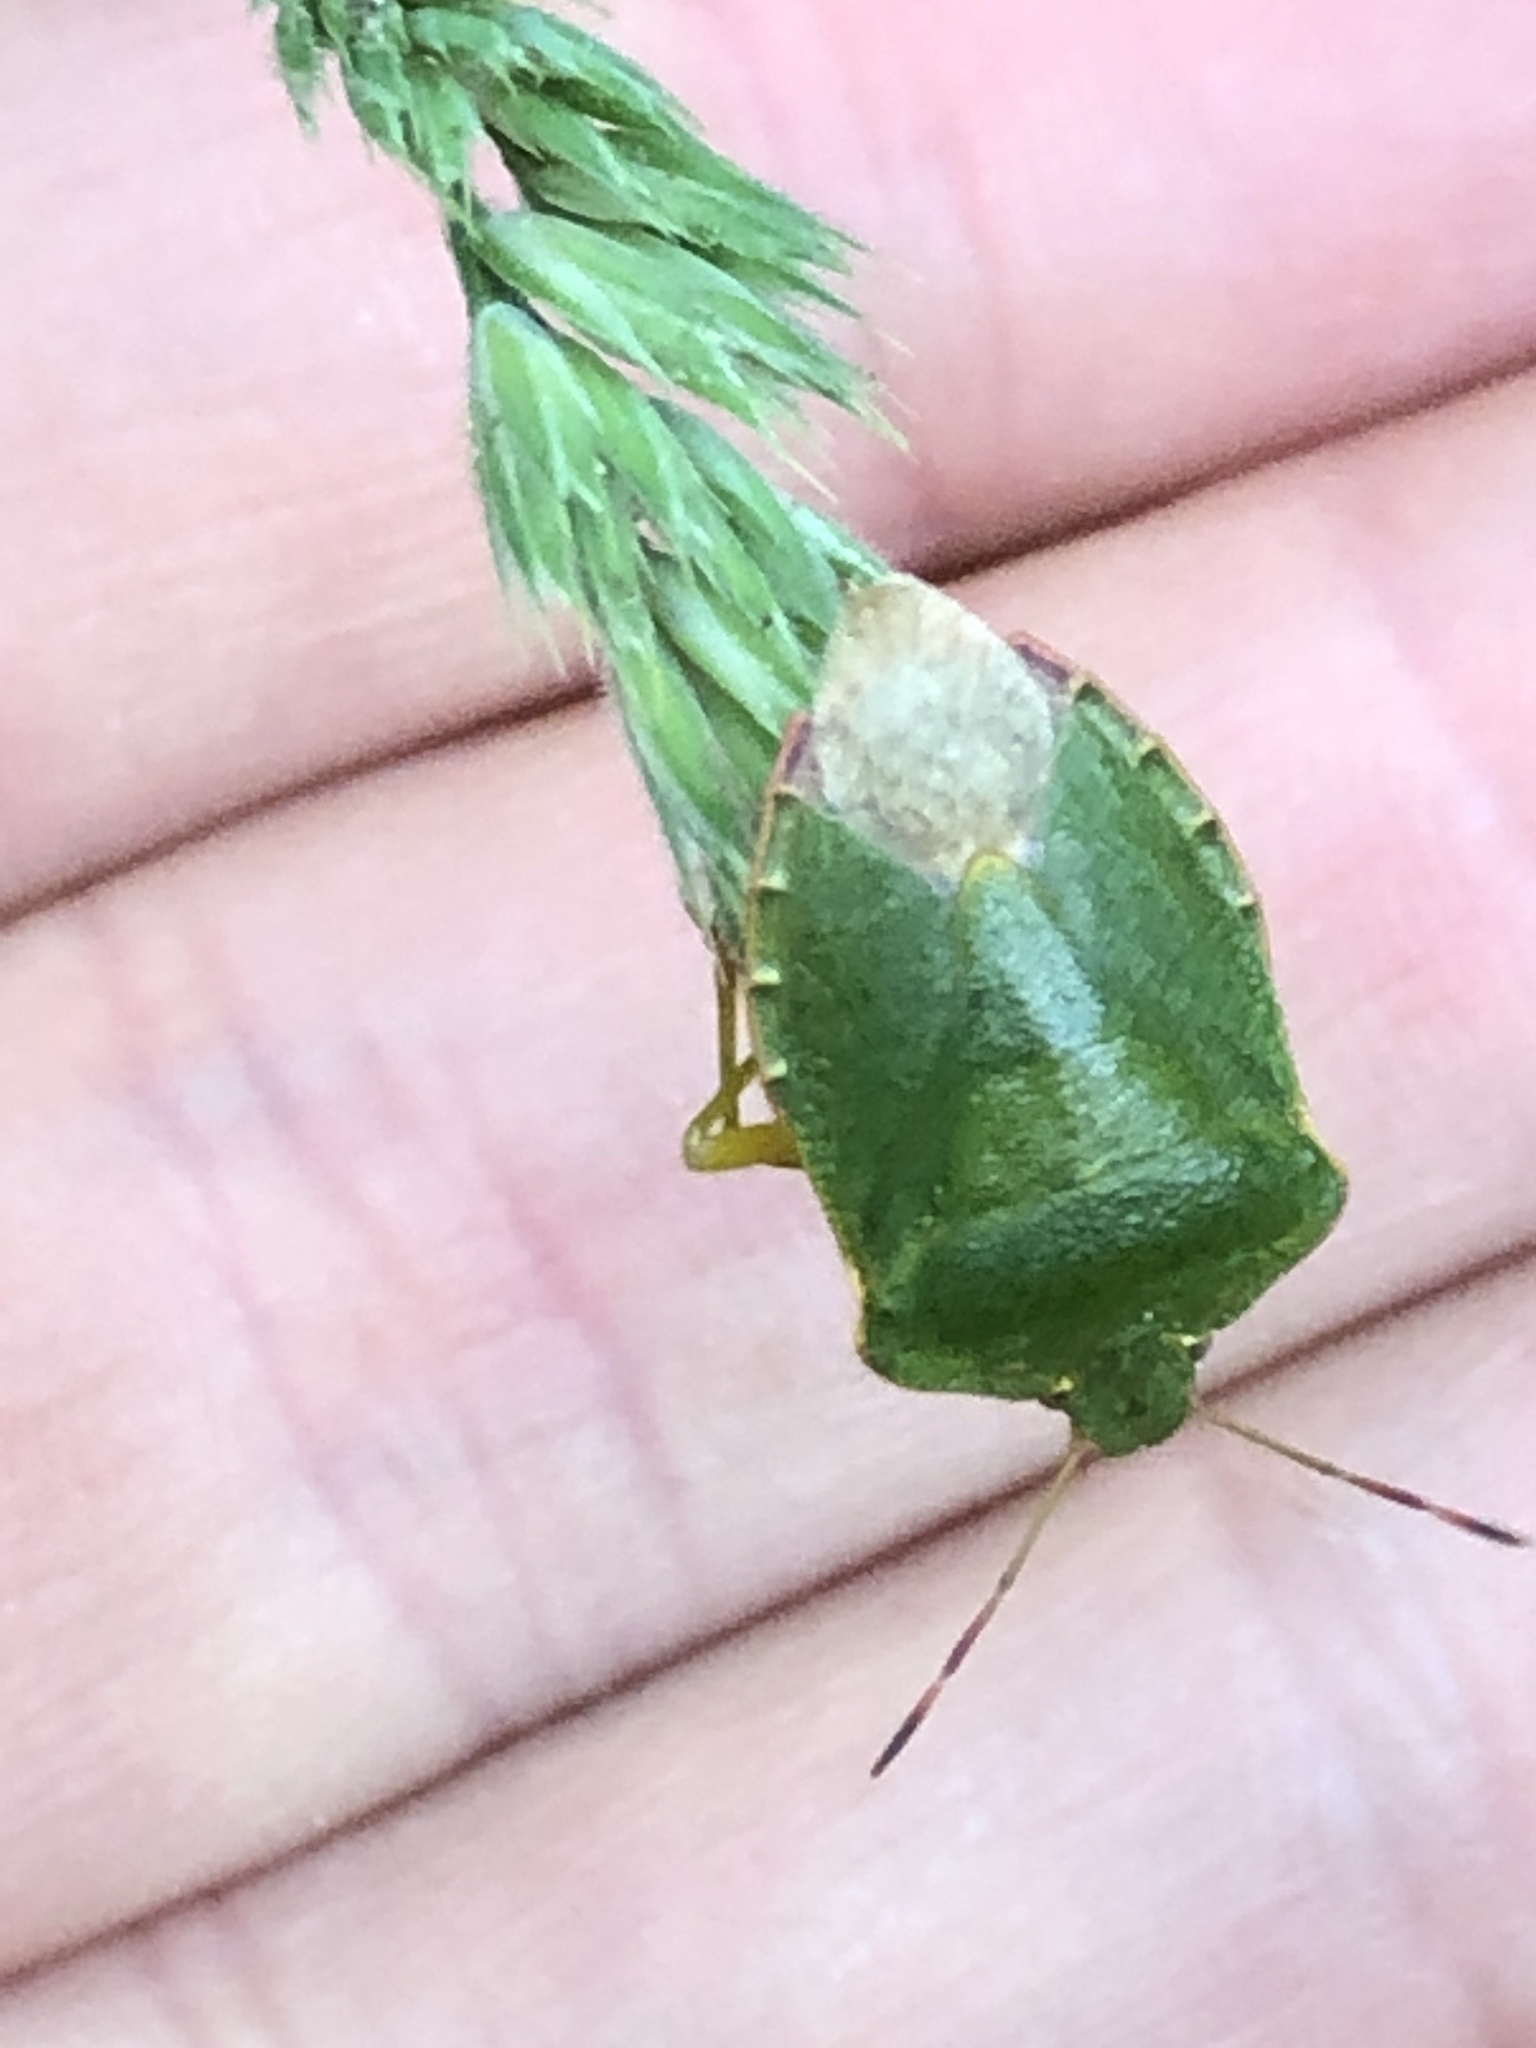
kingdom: Animalia
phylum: Arthropoda
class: Insecta
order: Hemiptera
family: Pentatomidae
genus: Palomena
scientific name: Palomena prasina
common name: Green shieldbug
